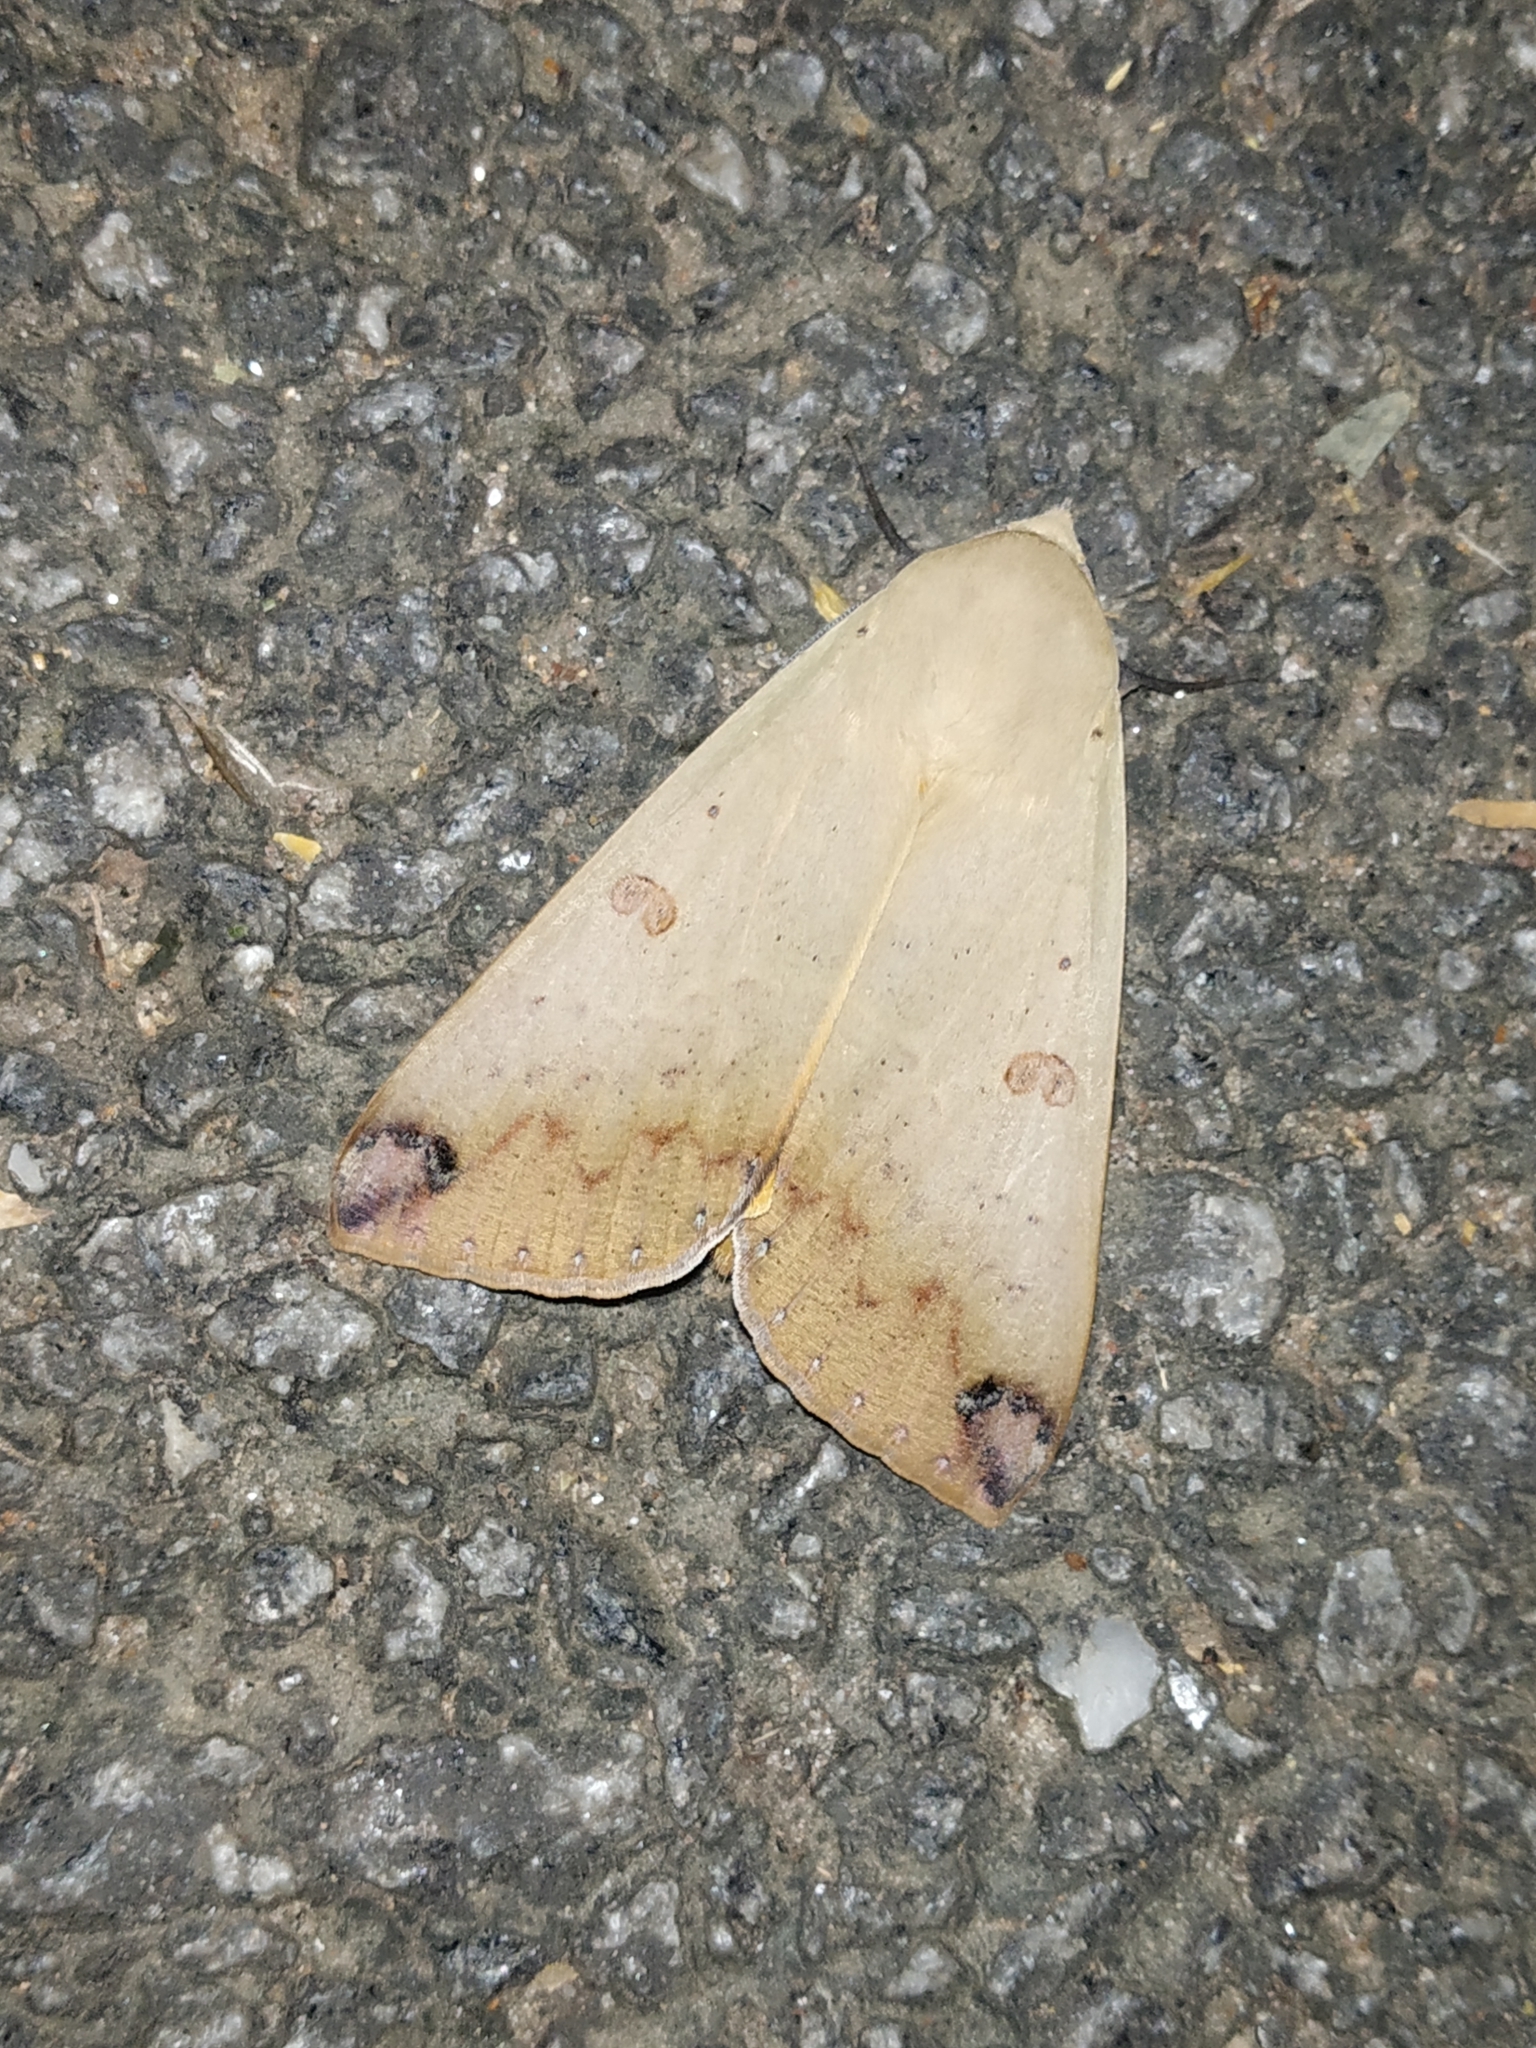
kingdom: Animalia
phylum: Arthropoda
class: Insecta
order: Lepidoptera
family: Erebidae
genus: Ophiusa
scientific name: Ophiusa disjungens
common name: Moth
